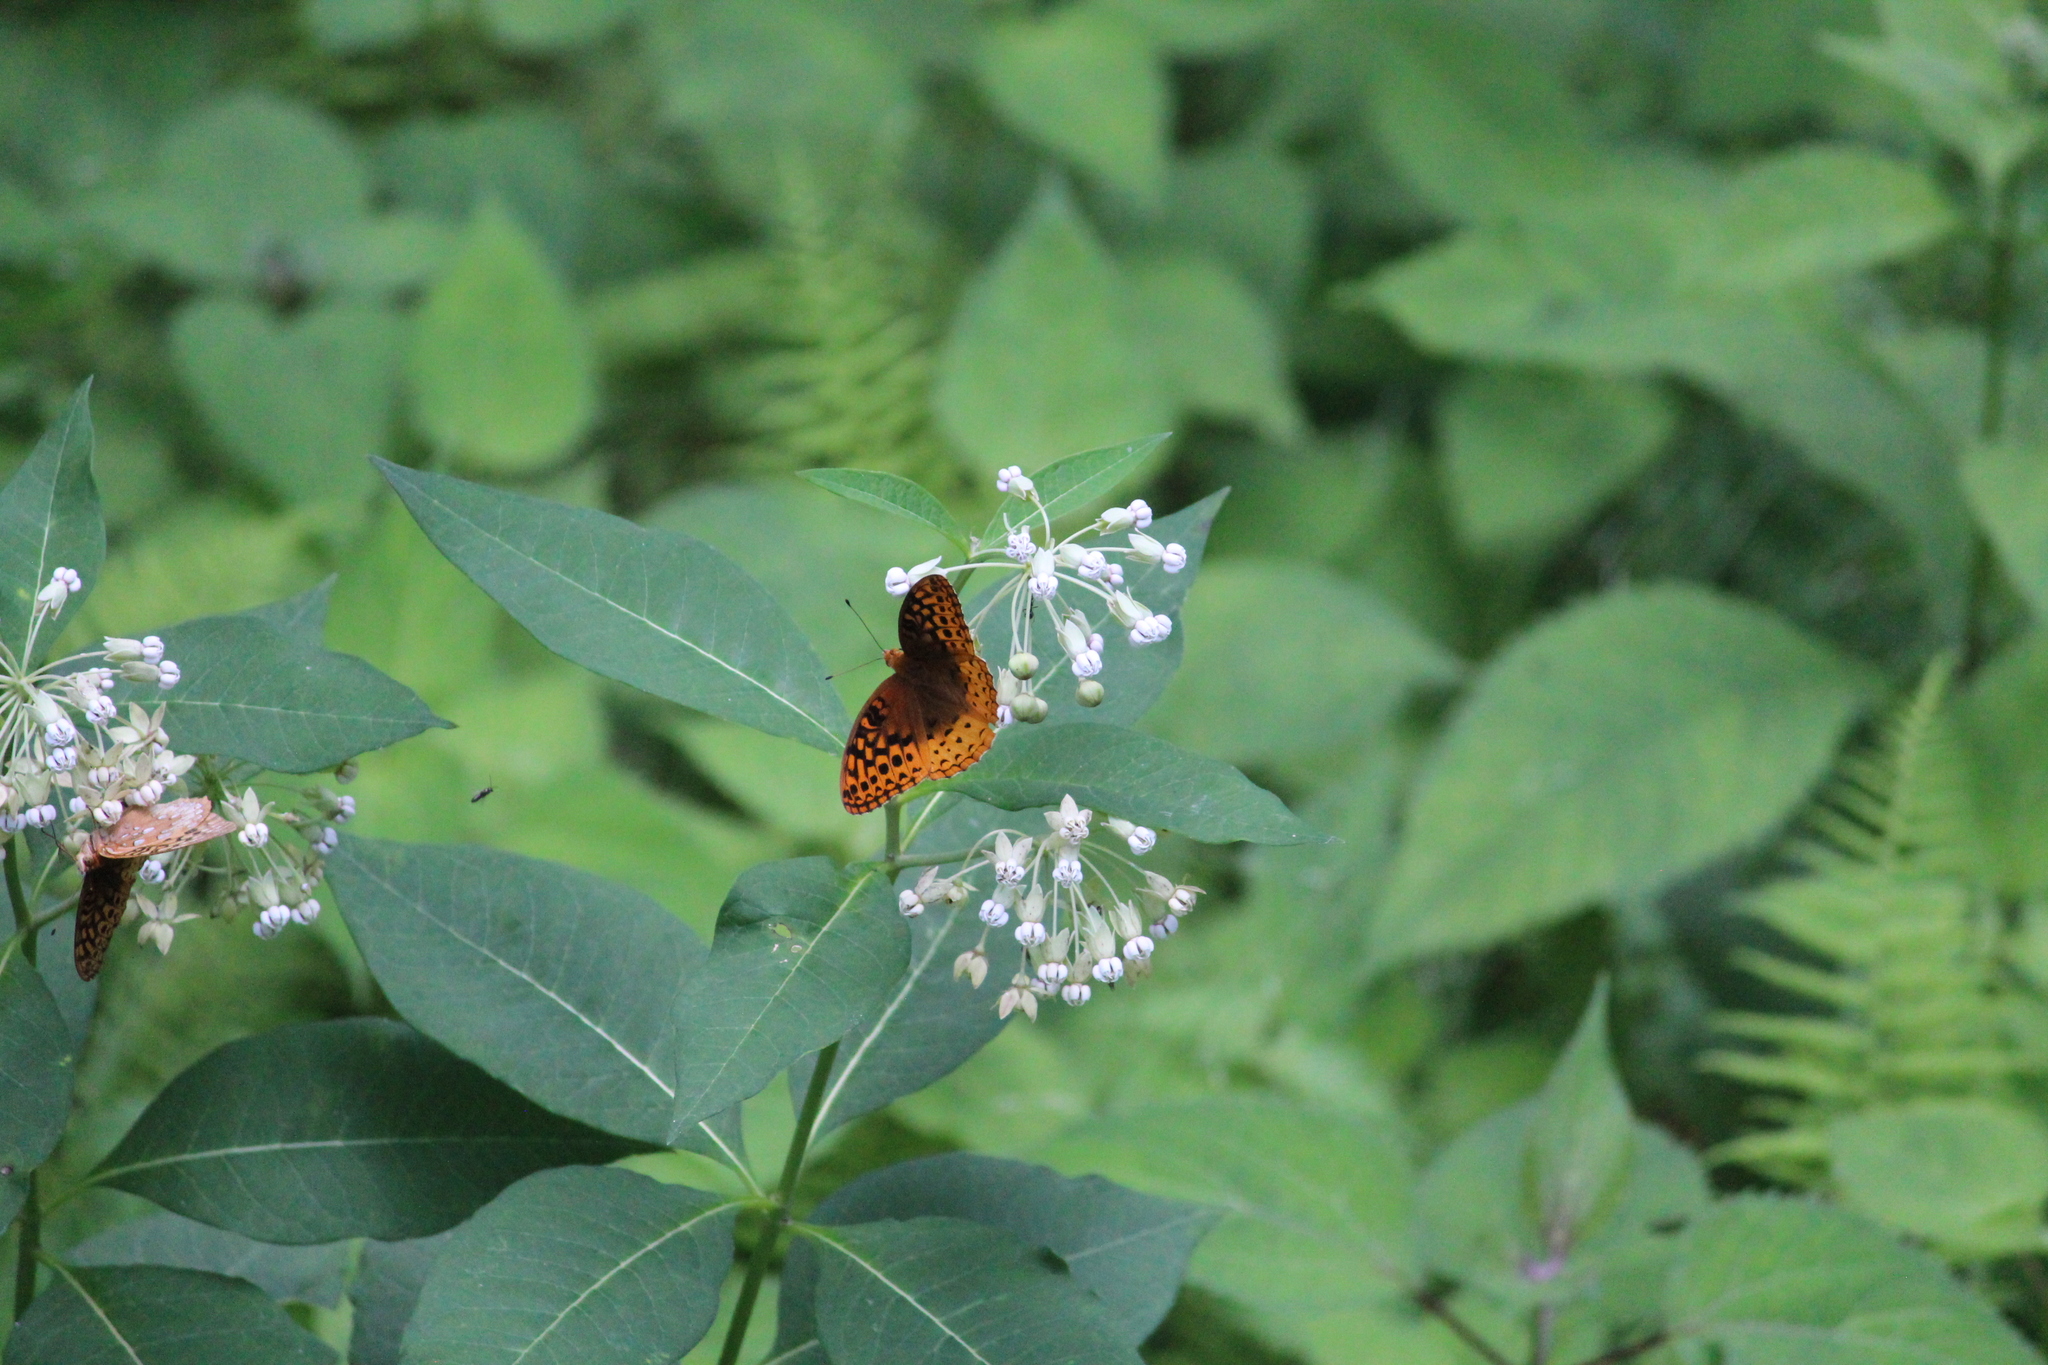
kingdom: Animalia
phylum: Arthropoda
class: Insecta
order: Lepidoptera
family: Nymphalidae
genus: Speyeria
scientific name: Speyeria cybele
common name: Great spangled fritillary
